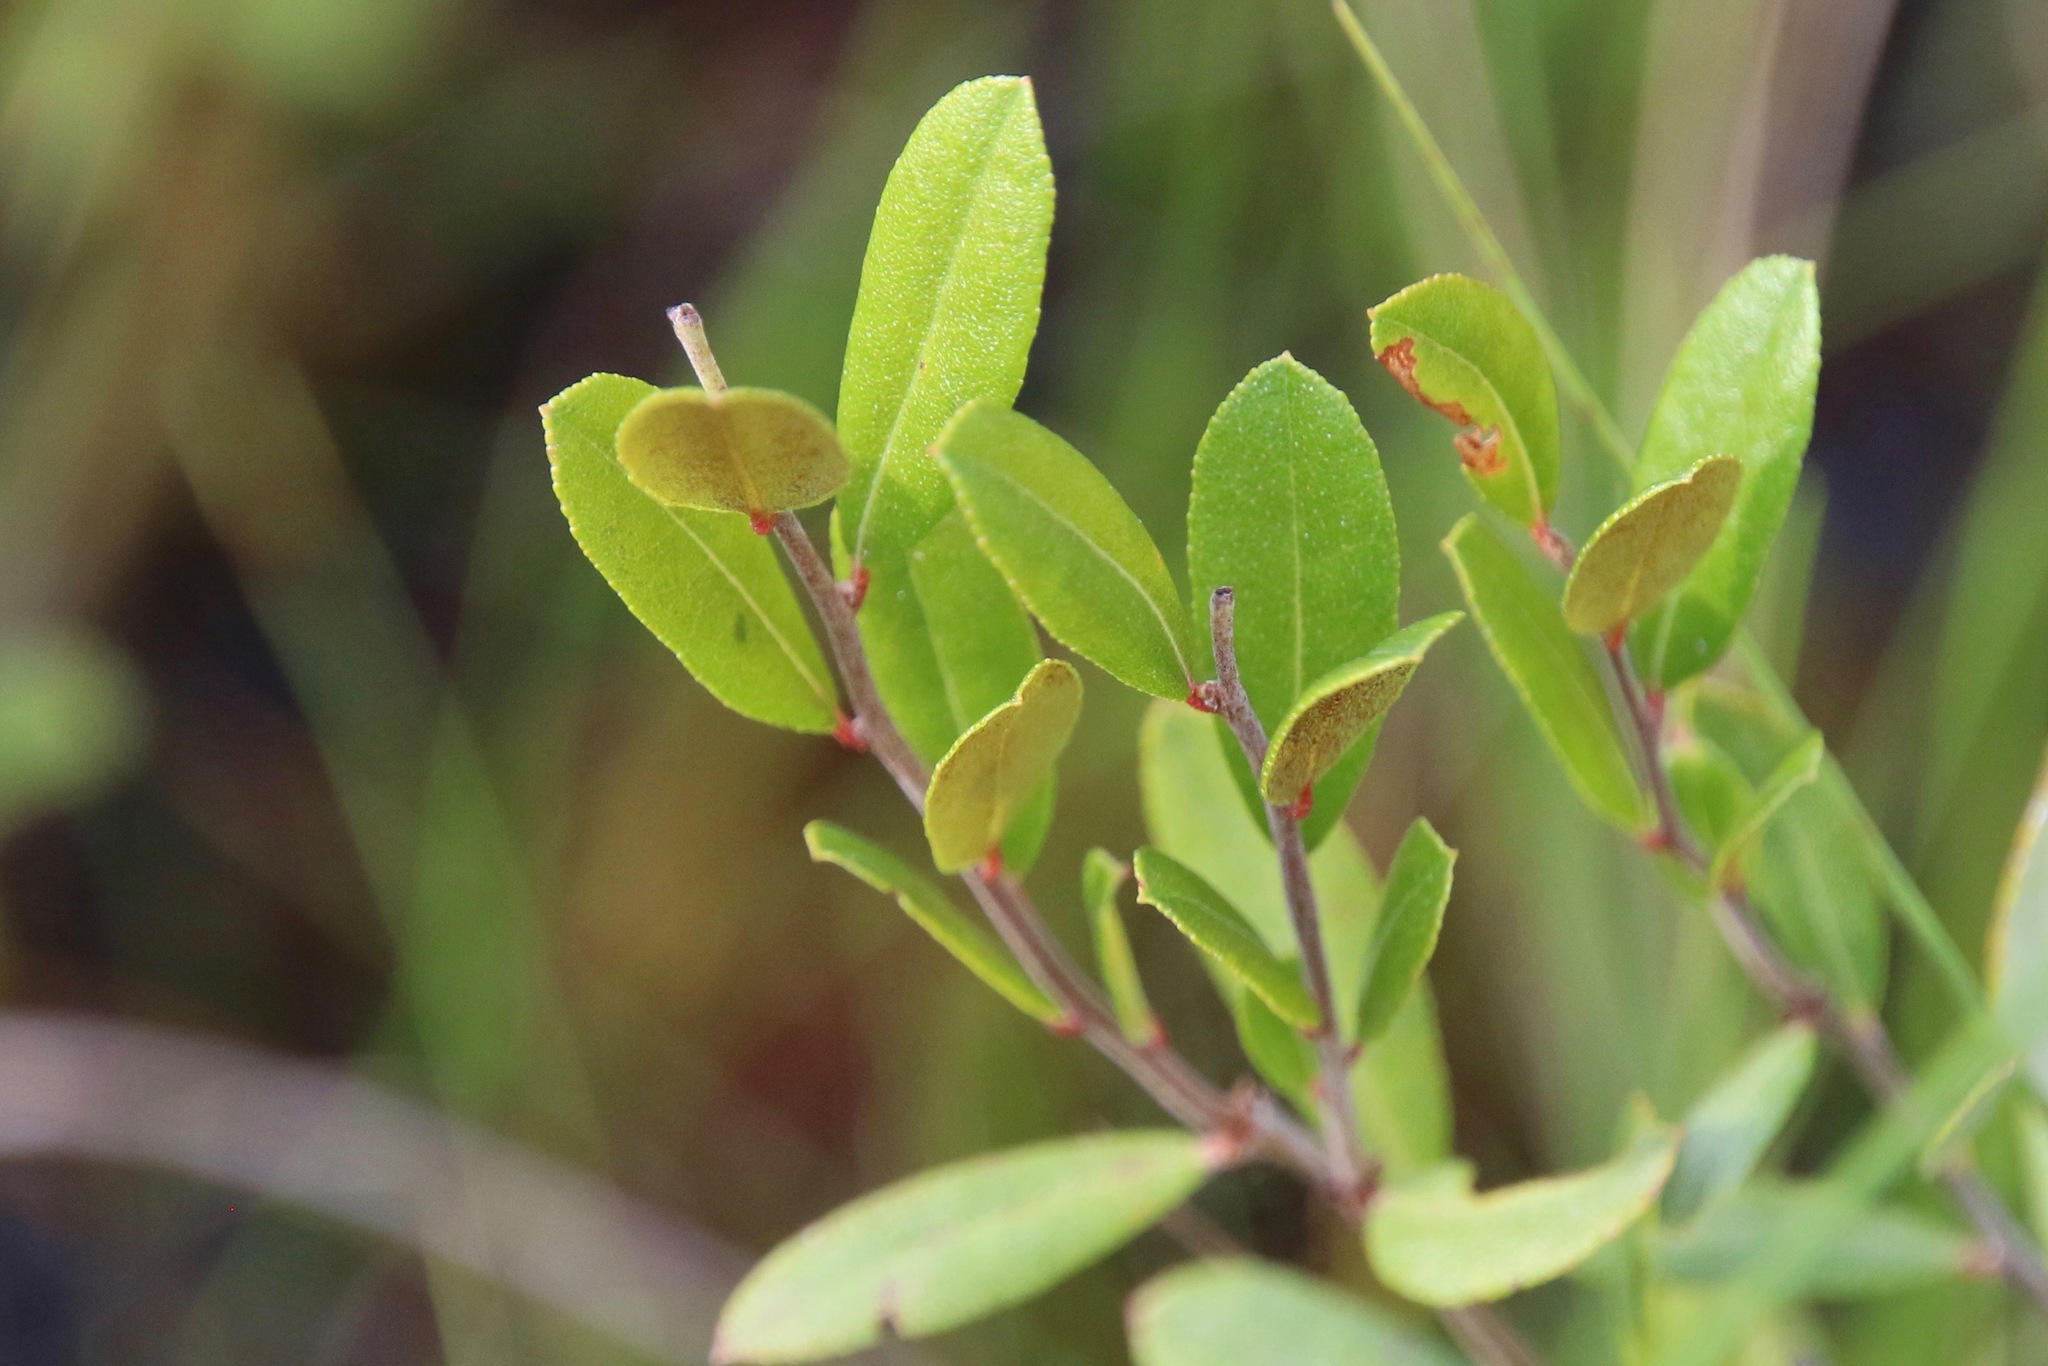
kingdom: Plantae
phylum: Tracheophyta
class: Magnoliopsida
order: Ericales
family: Ericaceae
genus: Chamaedaphne
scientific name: Chamaedaphne calyculata
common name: Leatherleaf
